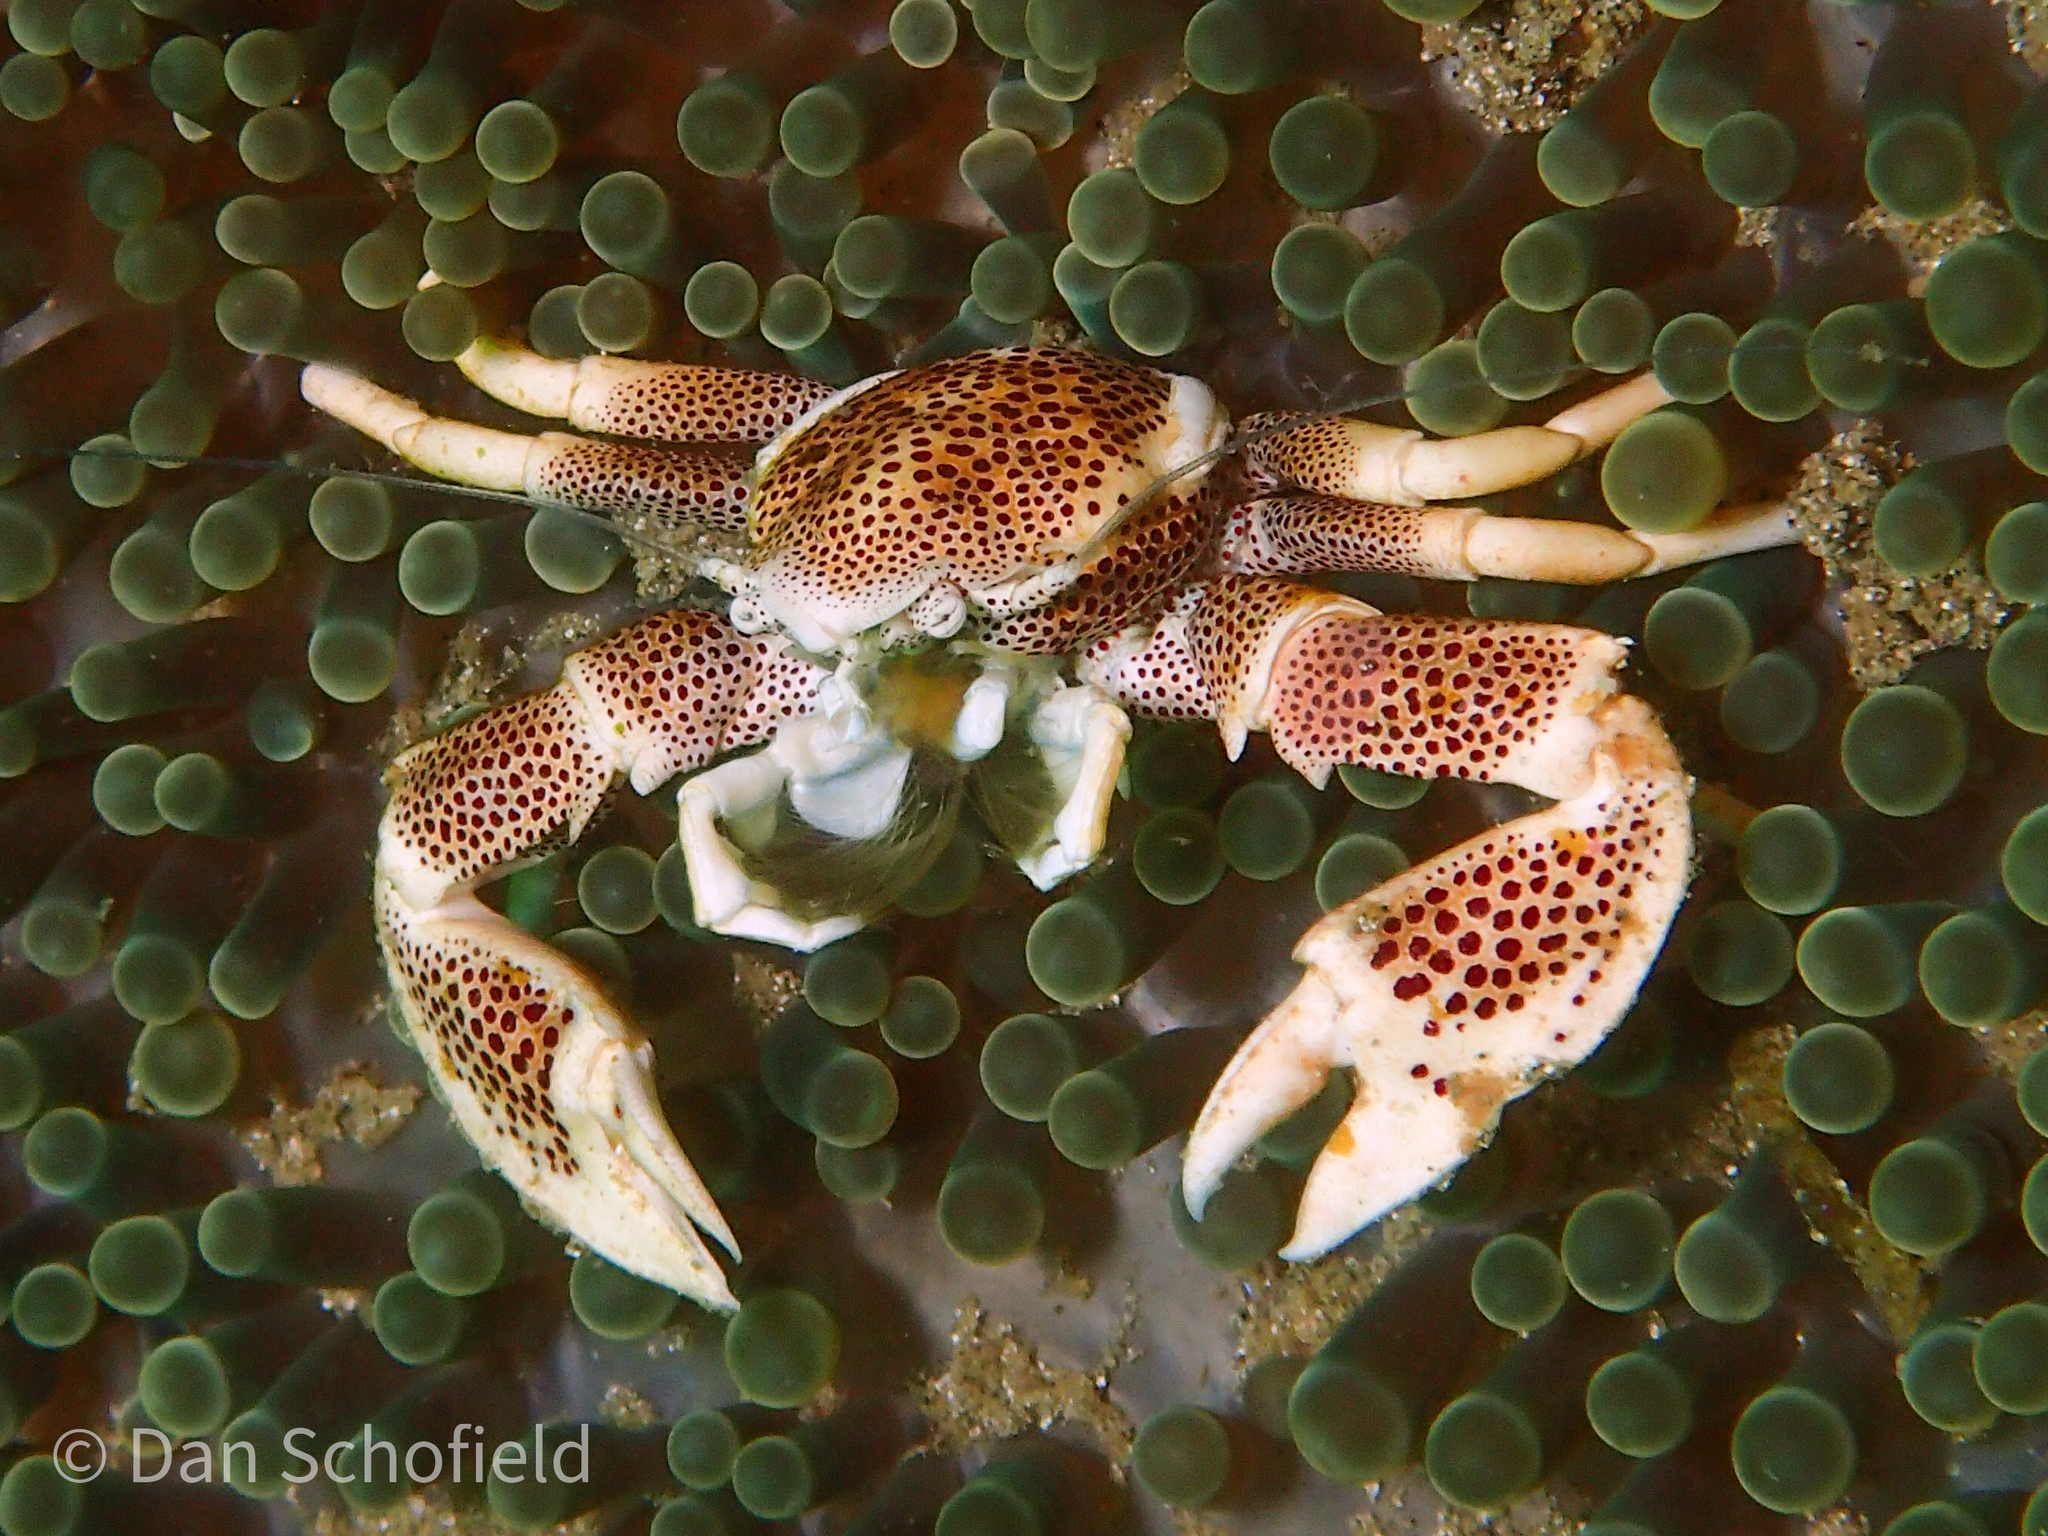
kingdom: Animalia
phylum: Arthropoda
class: Malacostraca
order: Decapoda
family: Porcellanidae
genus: Neopetrolisthes
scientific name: Neopetrolisthes maculatus
